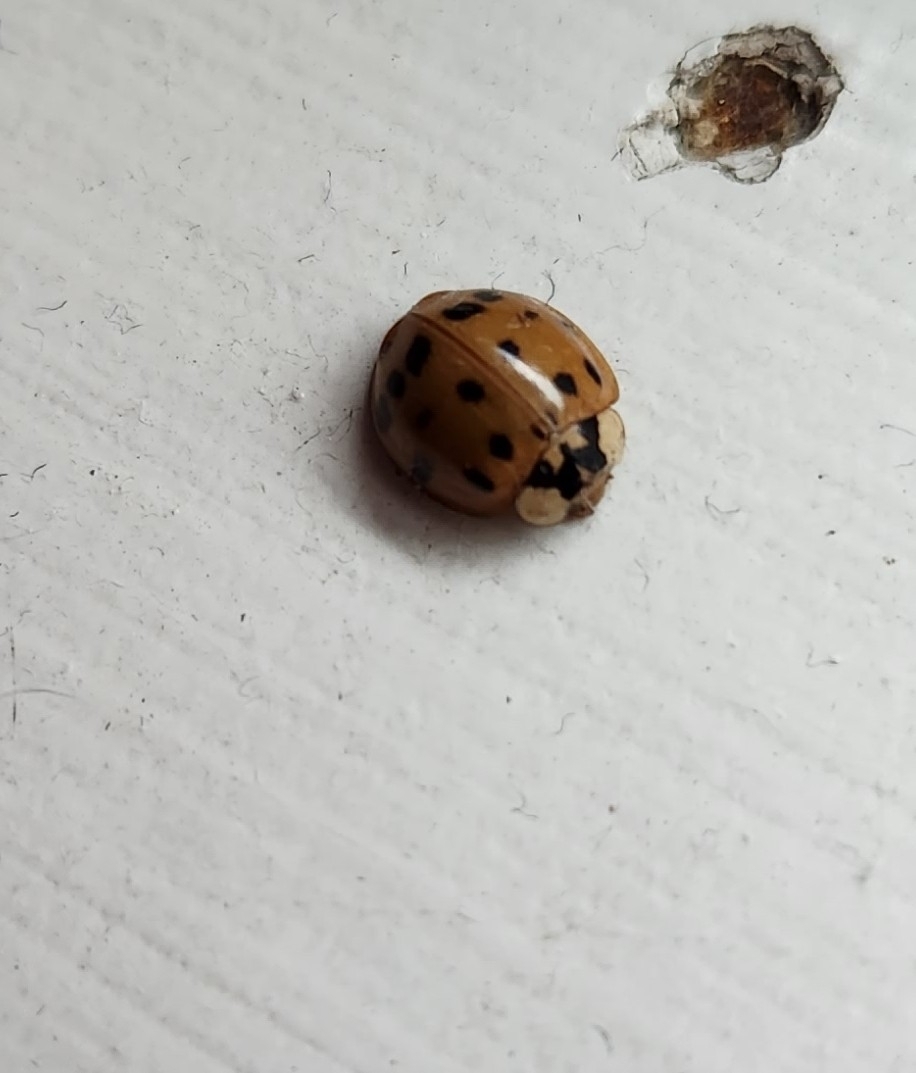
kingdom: Animalia
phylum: Arthropoda
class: Insecta
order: Coleoptera
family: Coccinellidae
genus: Harmonia
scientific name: Harmonia axyridis
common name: Harlequin ladybird
